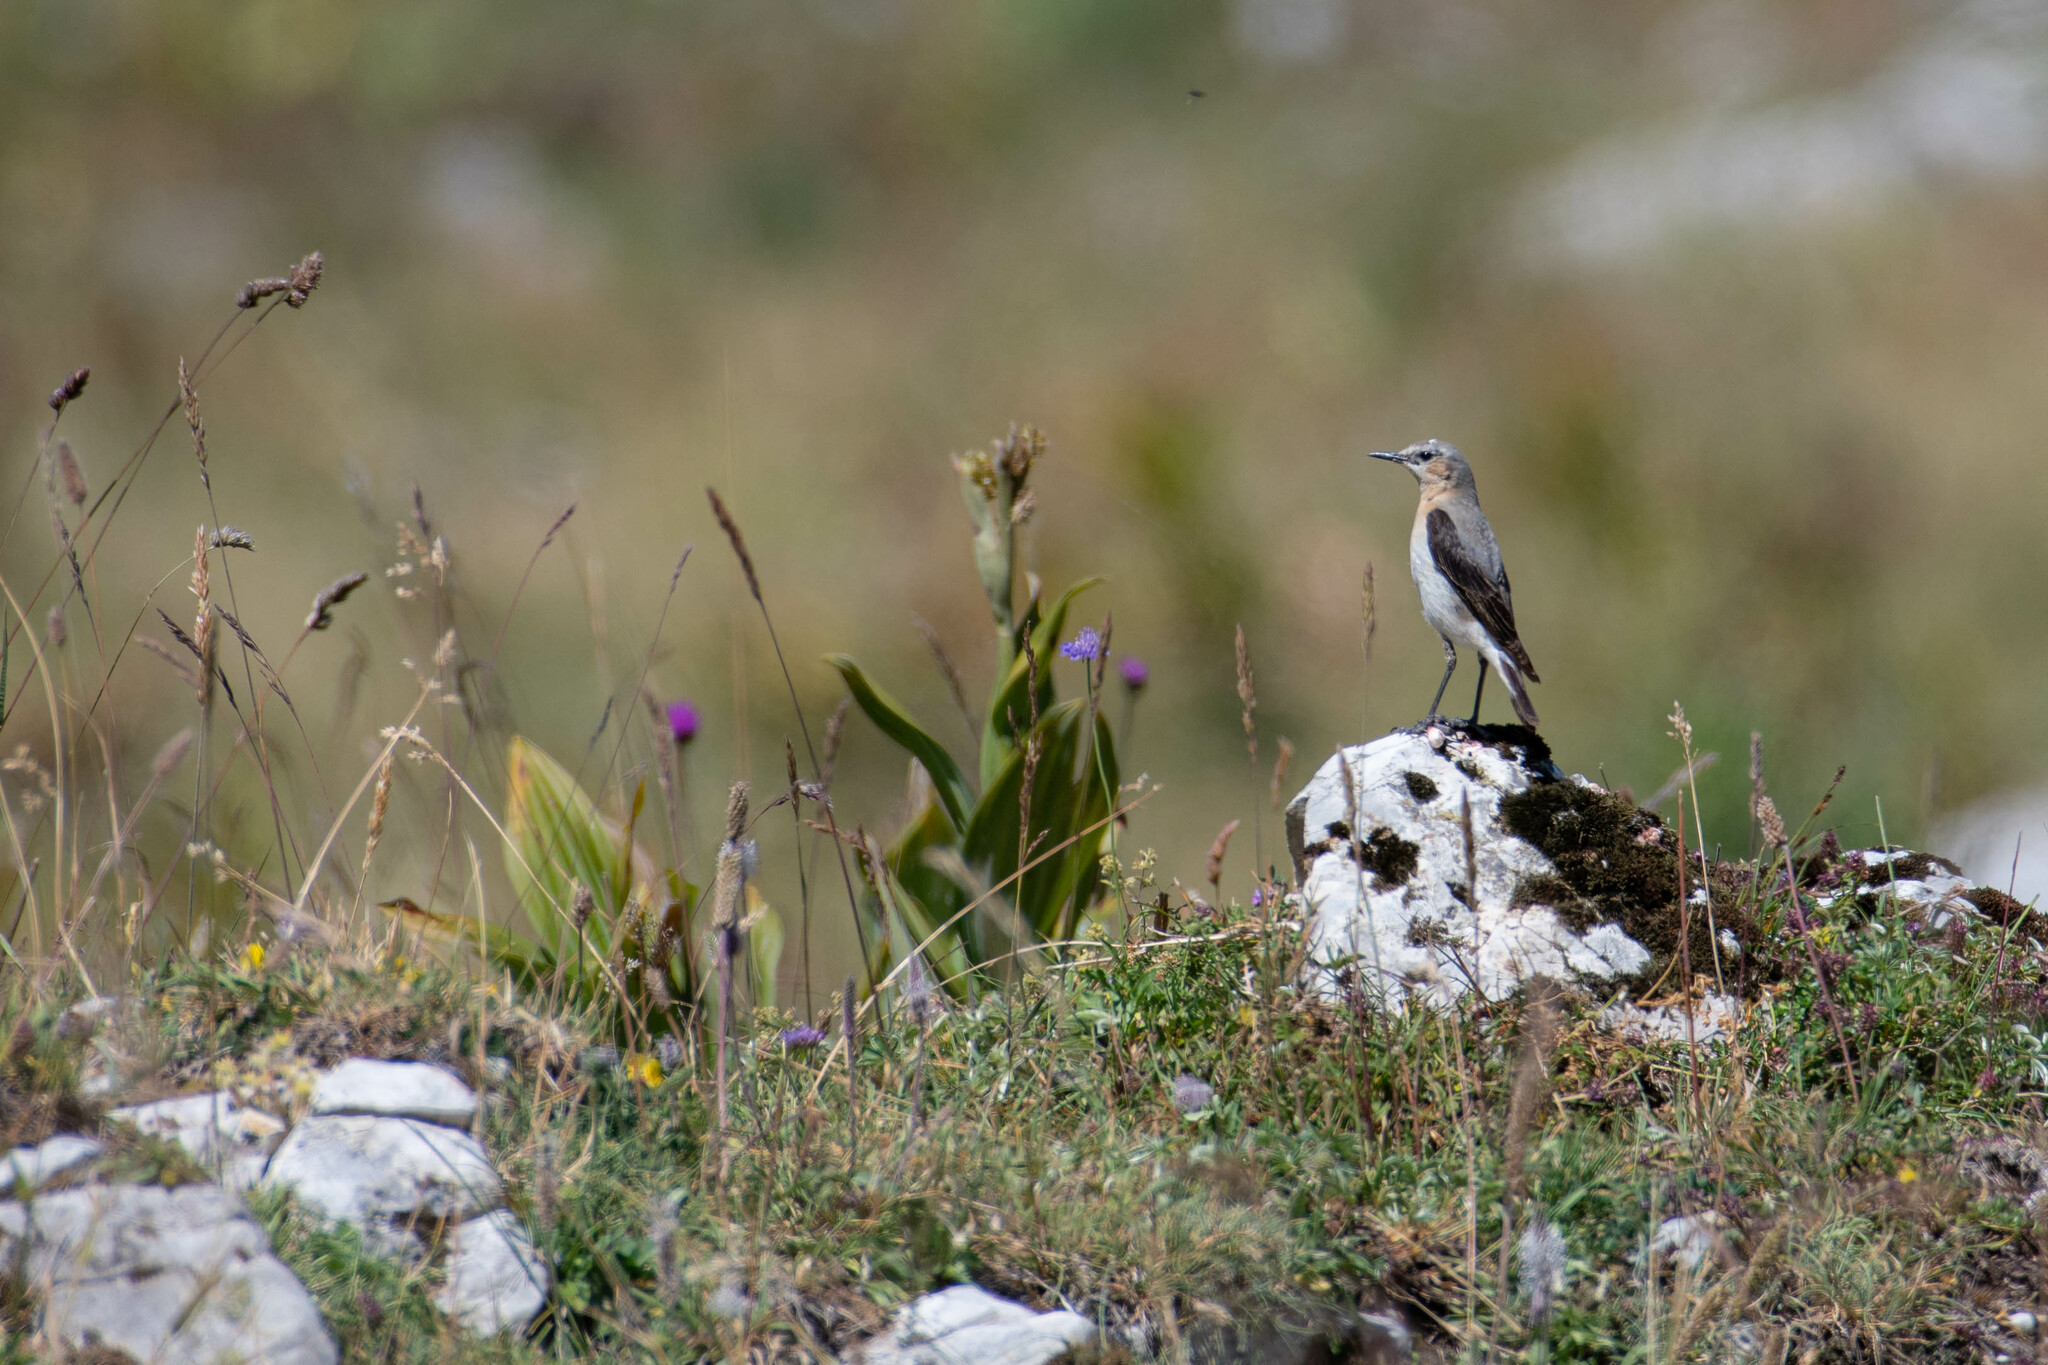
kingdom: Animalia
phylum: Chordata
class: Aves
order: Passeriformes
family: Muscicapidae
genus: Oenanthe
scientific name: Oenanthe oenanthe
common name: Northern wheatear
